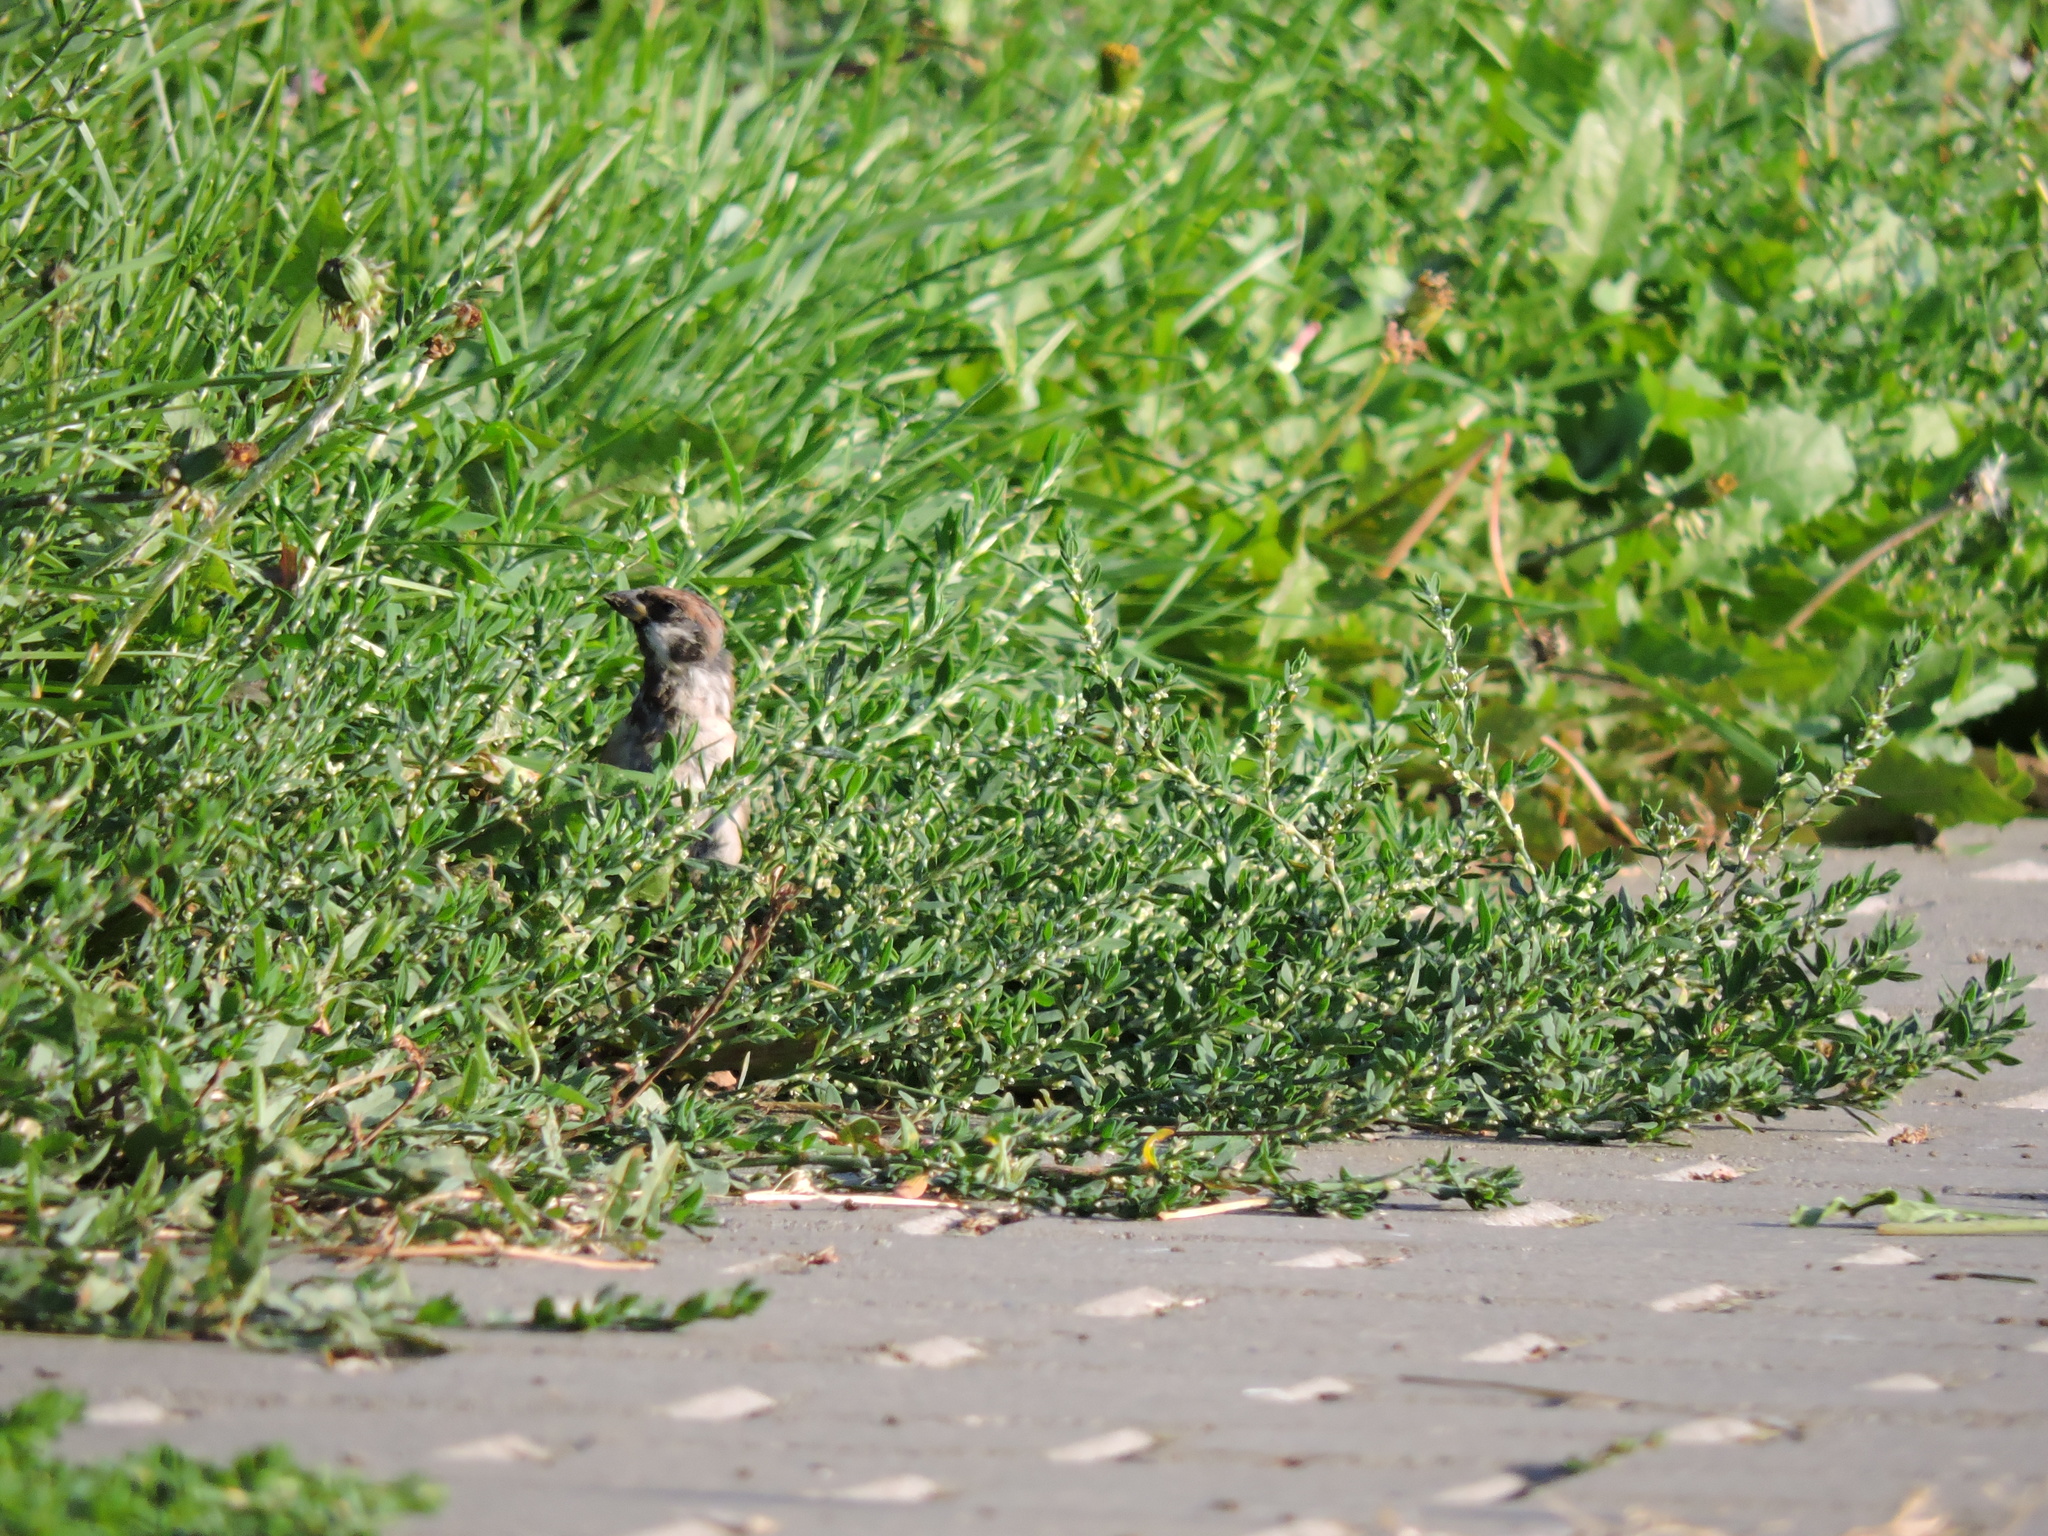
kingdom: Animalia
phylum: Chordata
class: Aves
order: Passeriformes
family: Passeridae
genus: Passer
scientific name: Passer montanus
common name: Eurasian tree sparrow
